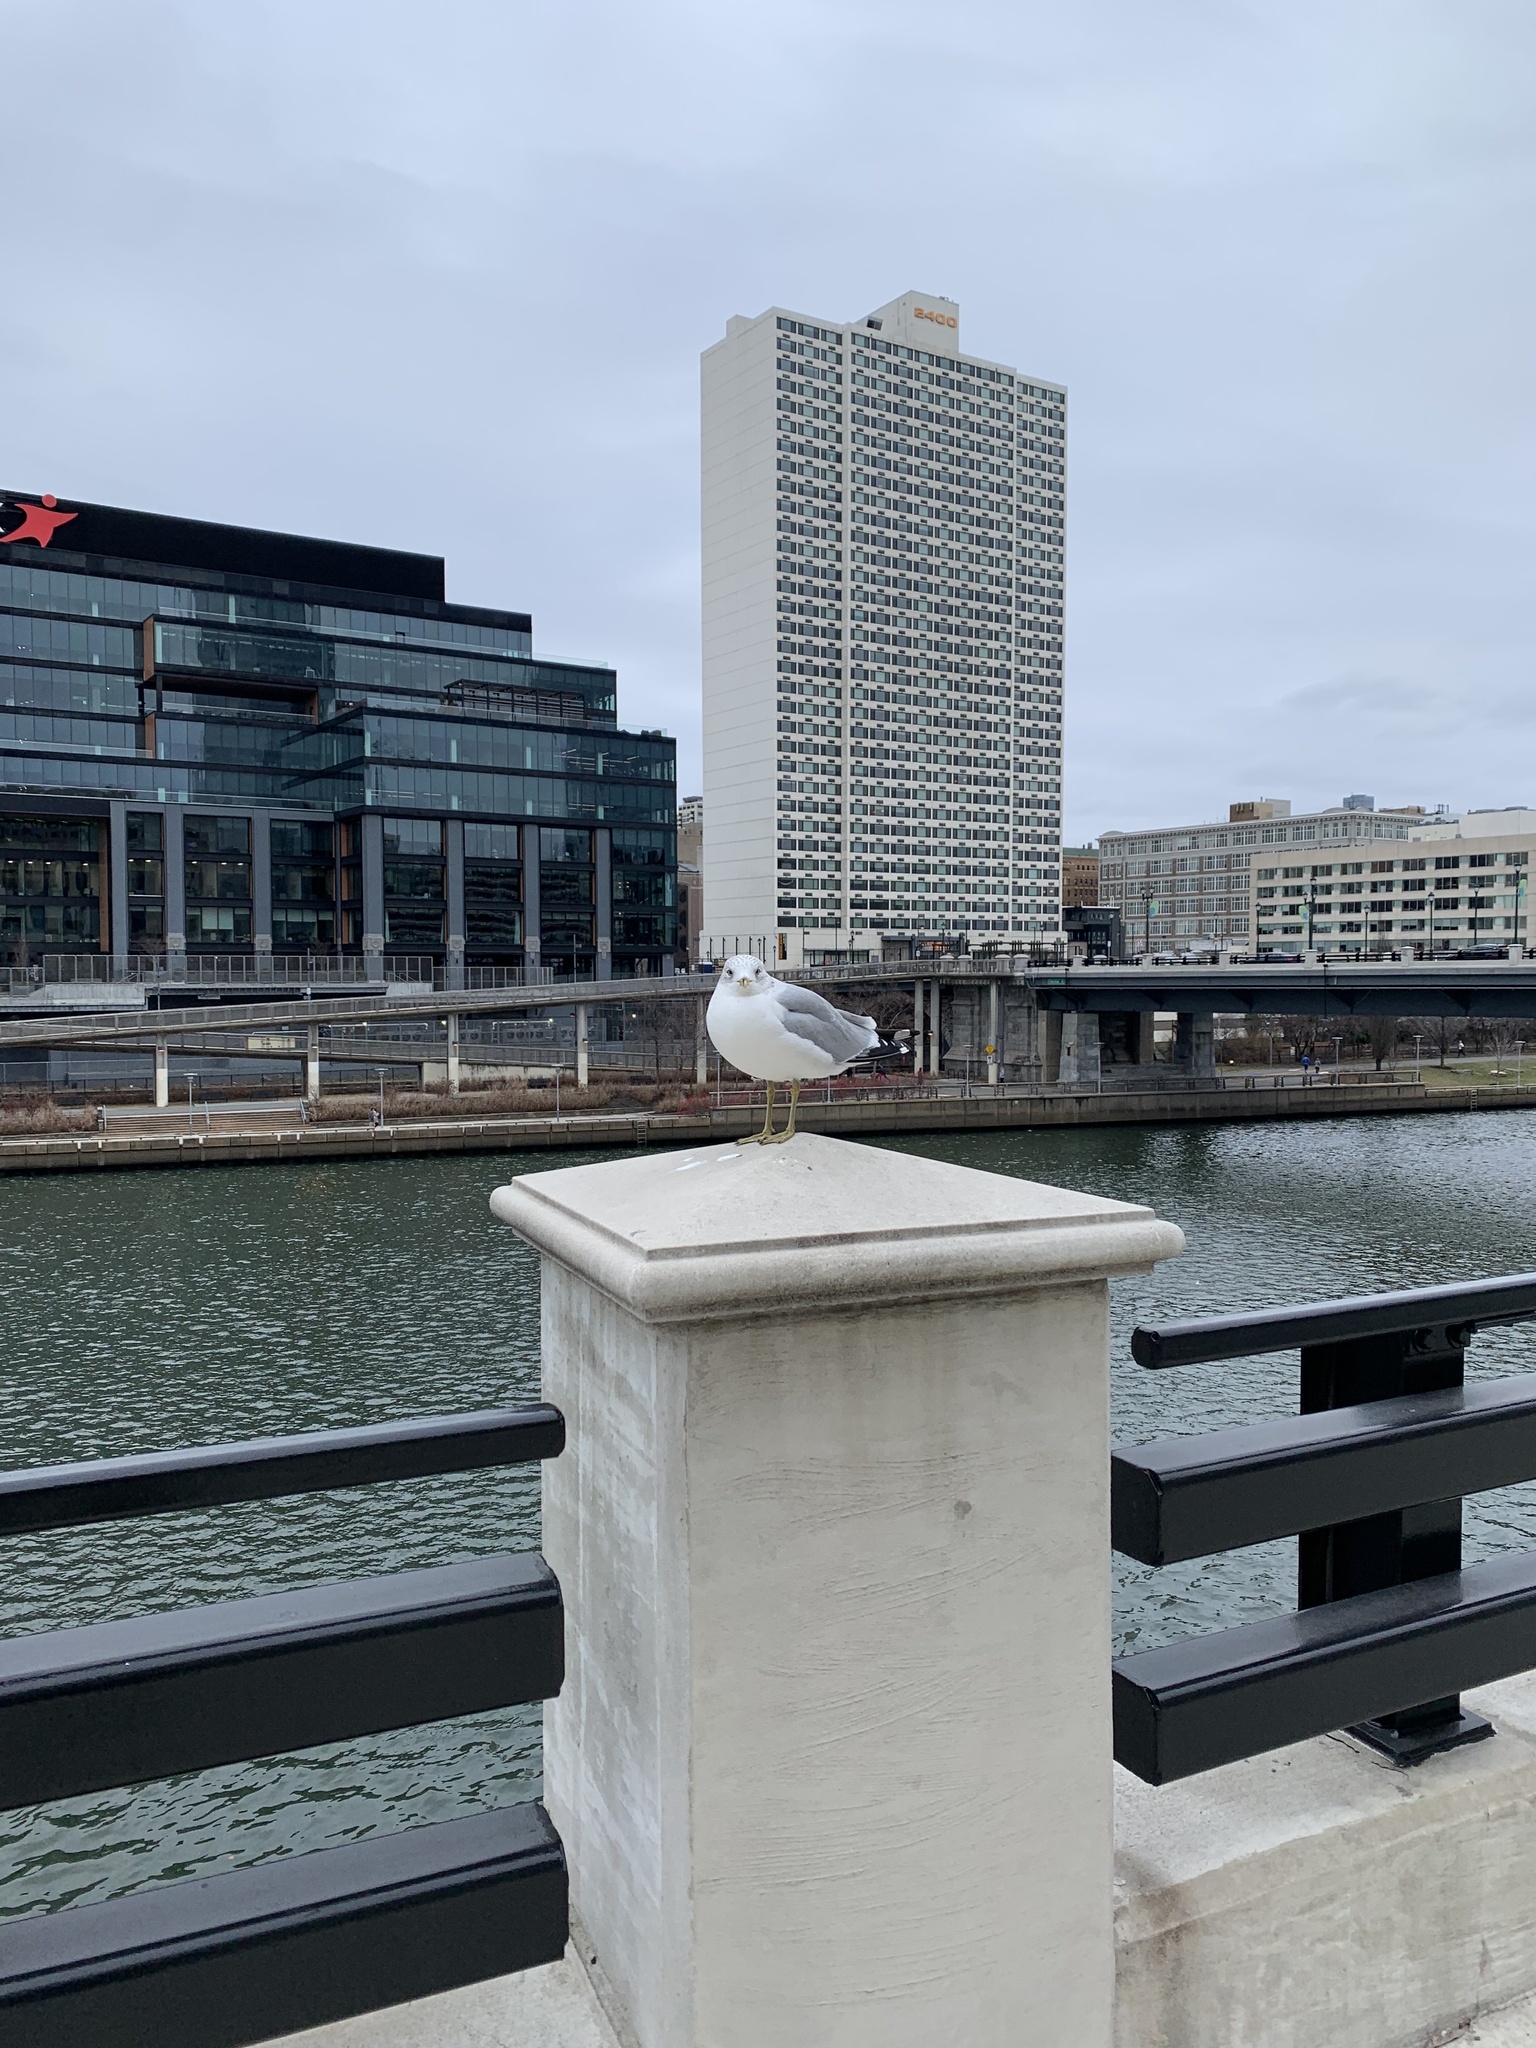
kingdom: Animalia
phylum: Chordata
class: Aves
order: Charadriiformes
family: Laridae
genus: Larus
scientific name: Larus delawarensis
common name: Ring-billed gull
